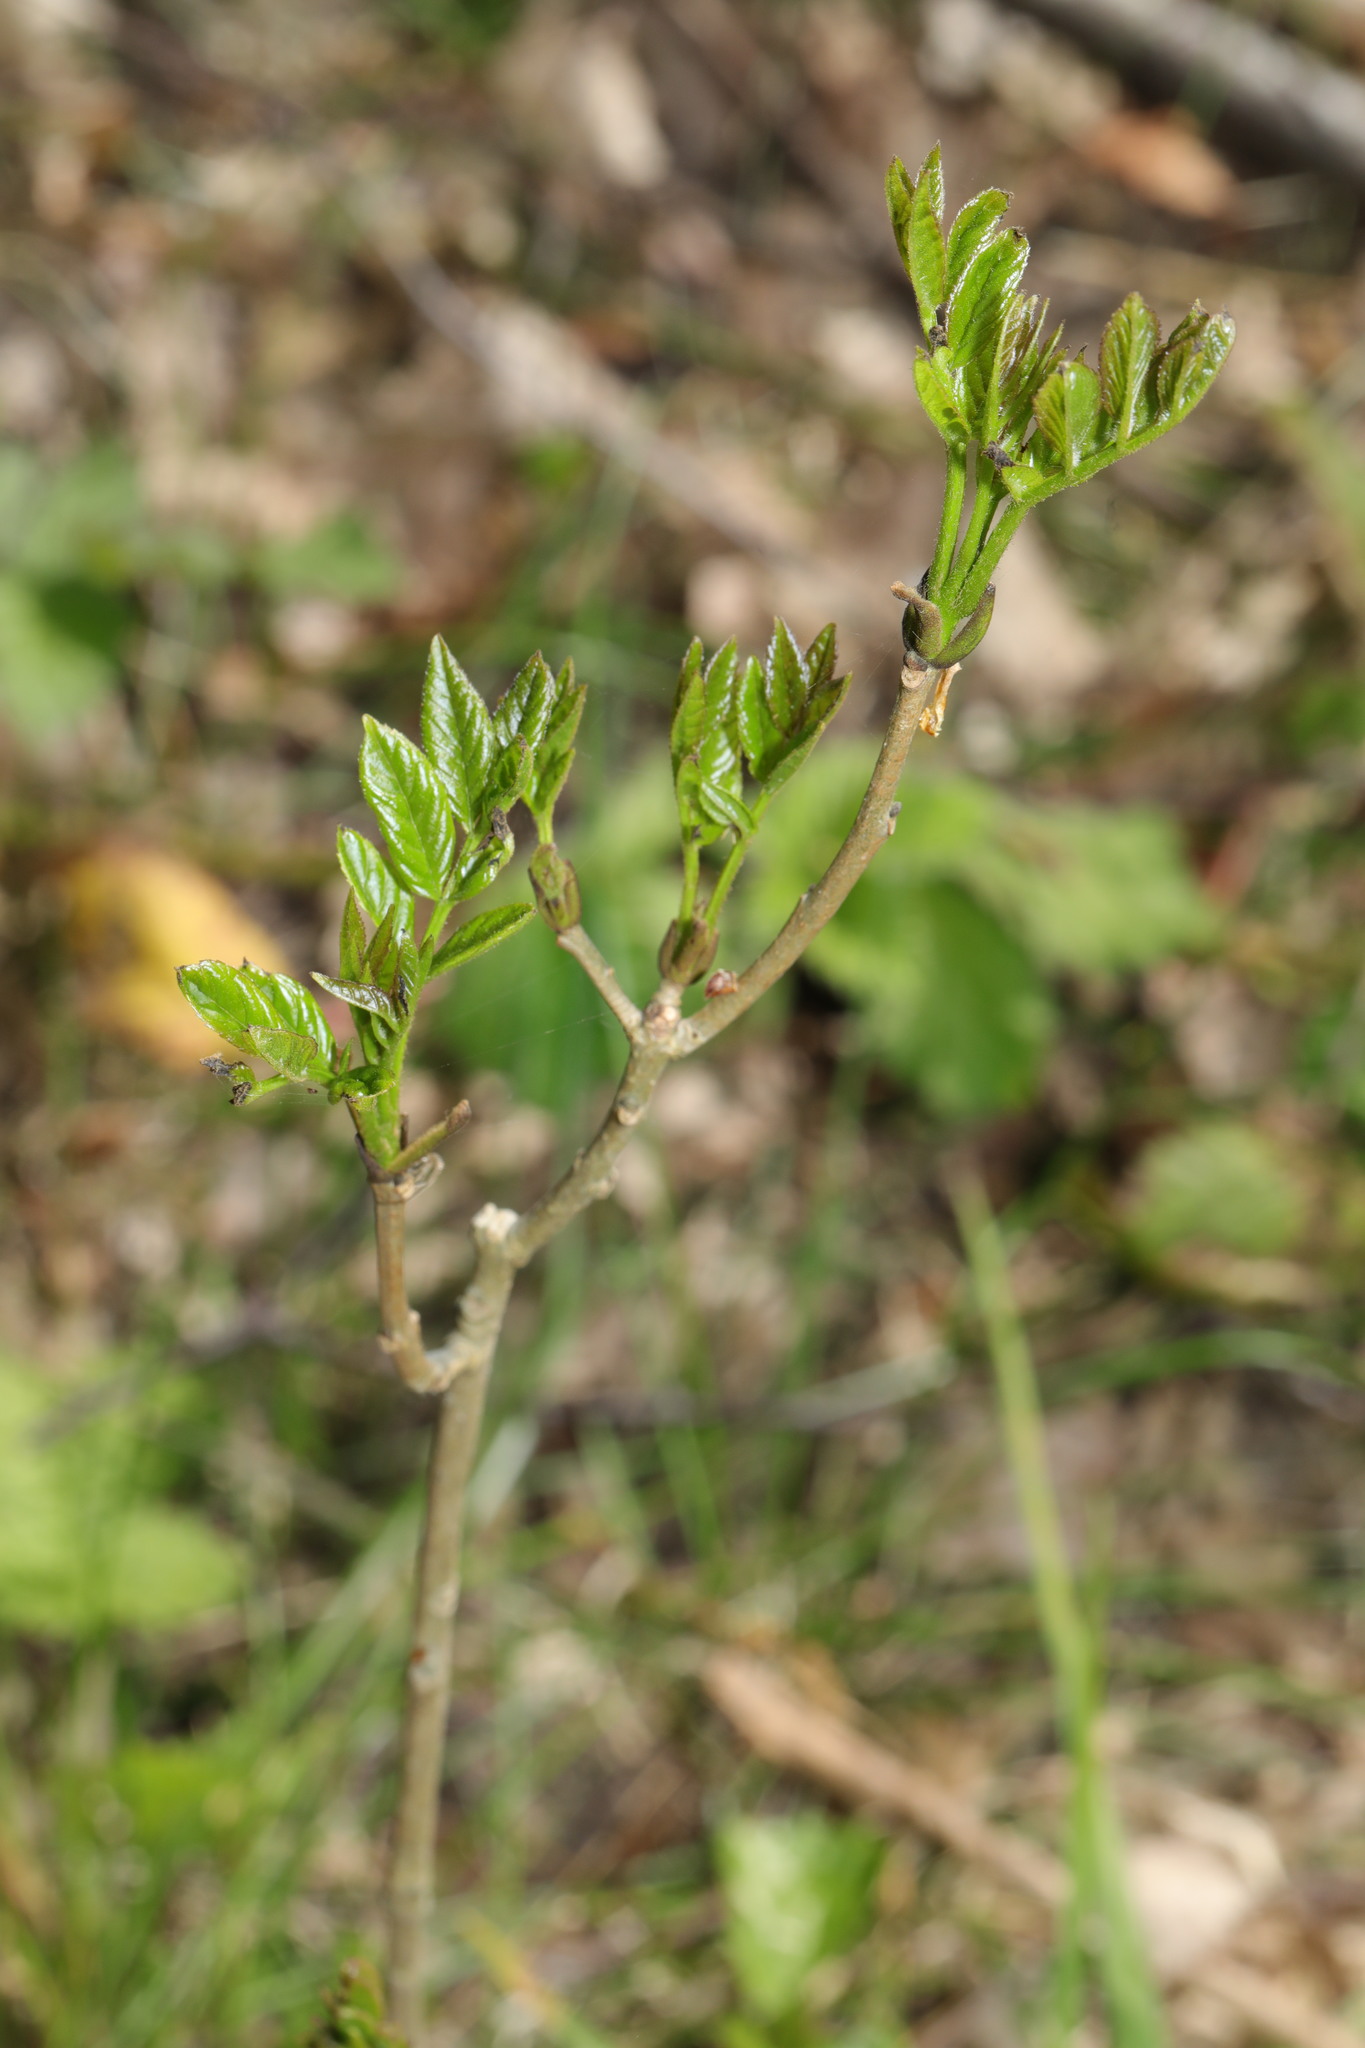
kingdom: Plantae
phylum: Tracheophyta
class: Magnoliopsida
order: Lamiales
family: Oleaceae
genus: Fraxinus
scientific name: Fraxinus excelsior
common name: European ash
